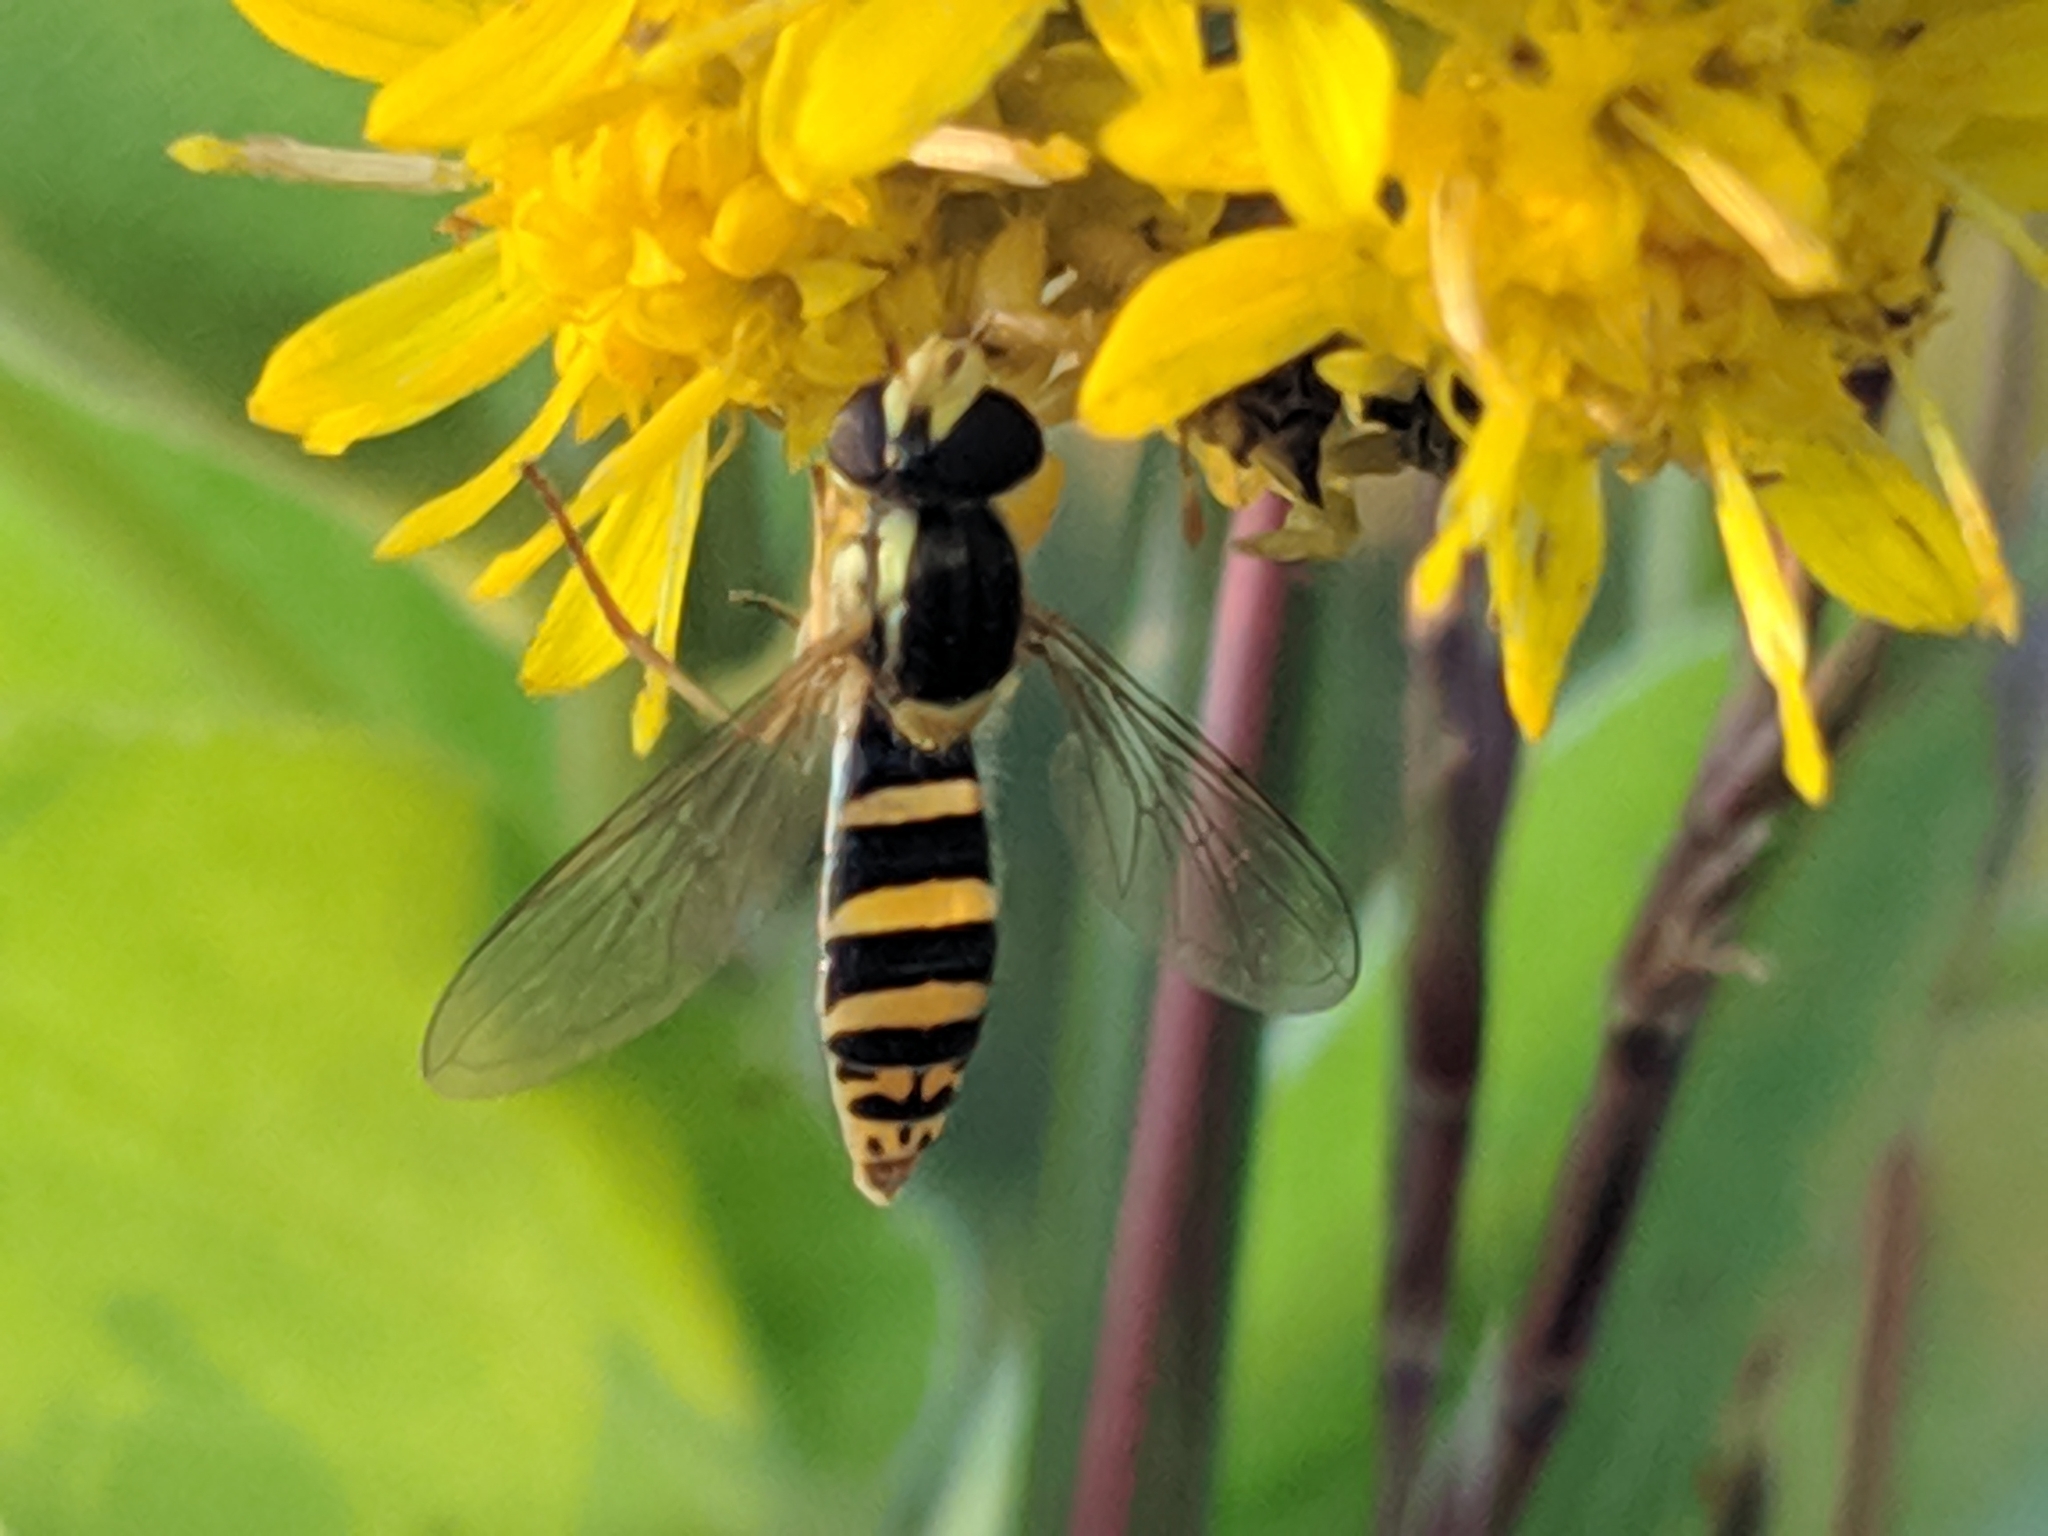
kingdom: Animalia
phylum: Arthropoda
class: Insecta
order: Diptera
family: Syrphidae
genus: Sphaerophoria
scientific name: Sphaerophoria
